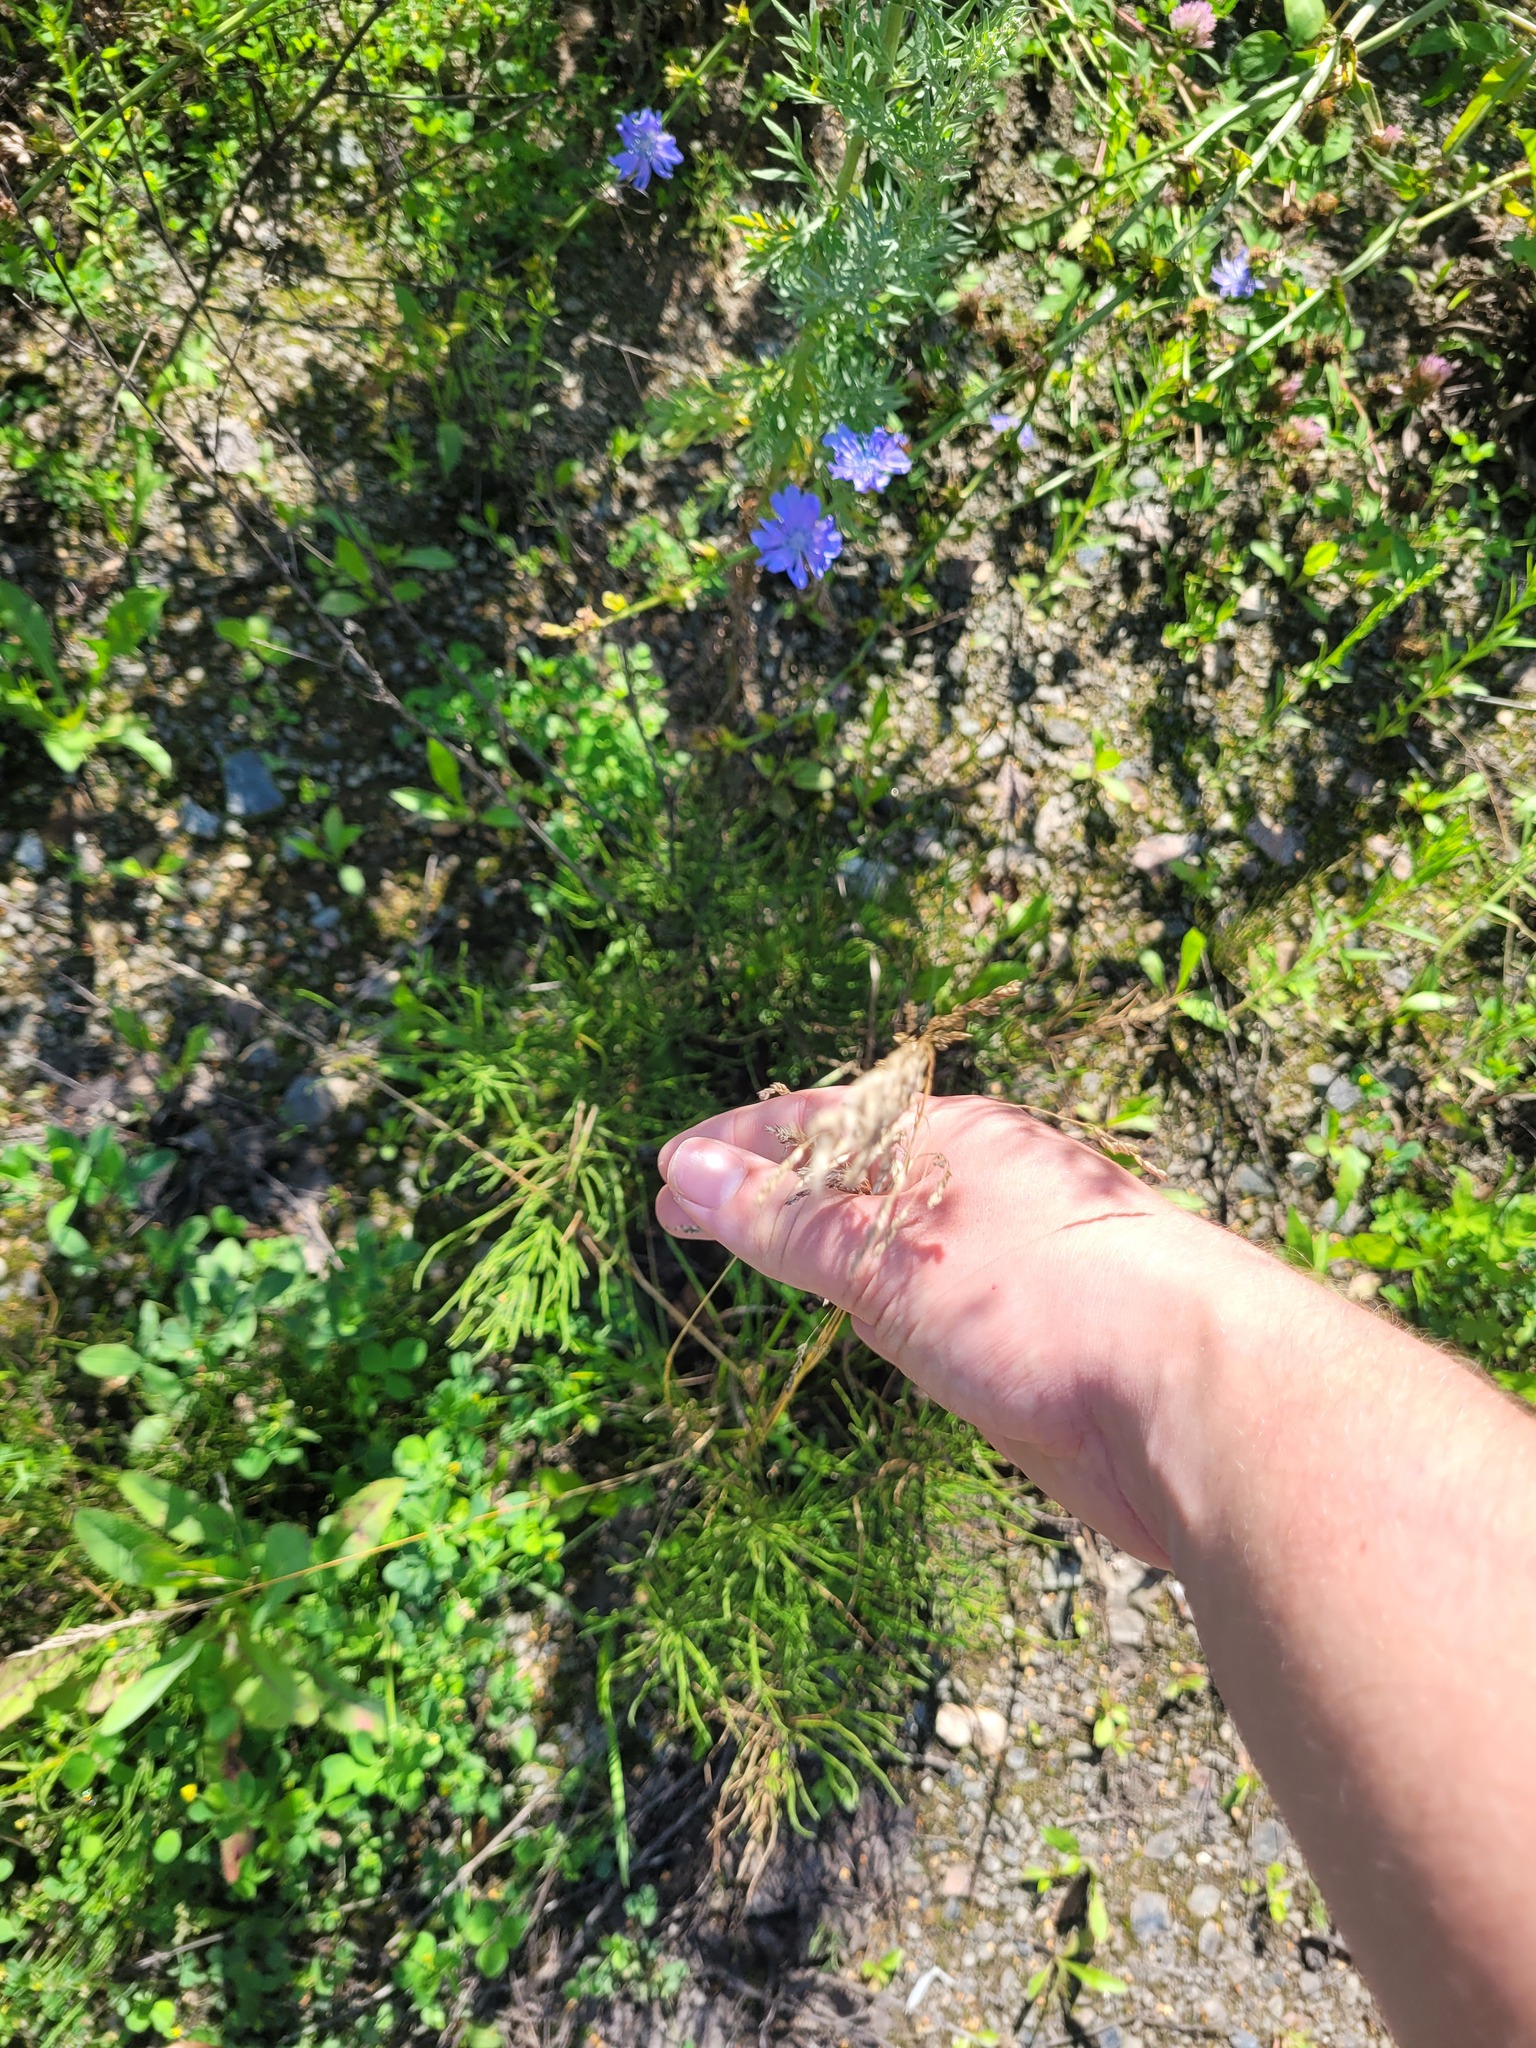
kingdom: Plantae
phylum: Tracheophyta
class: Liliopsida
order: Poales
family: Poaceae
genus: Poa
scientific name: Poa angustifolia
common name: Narrow-leaved meadow-grass
